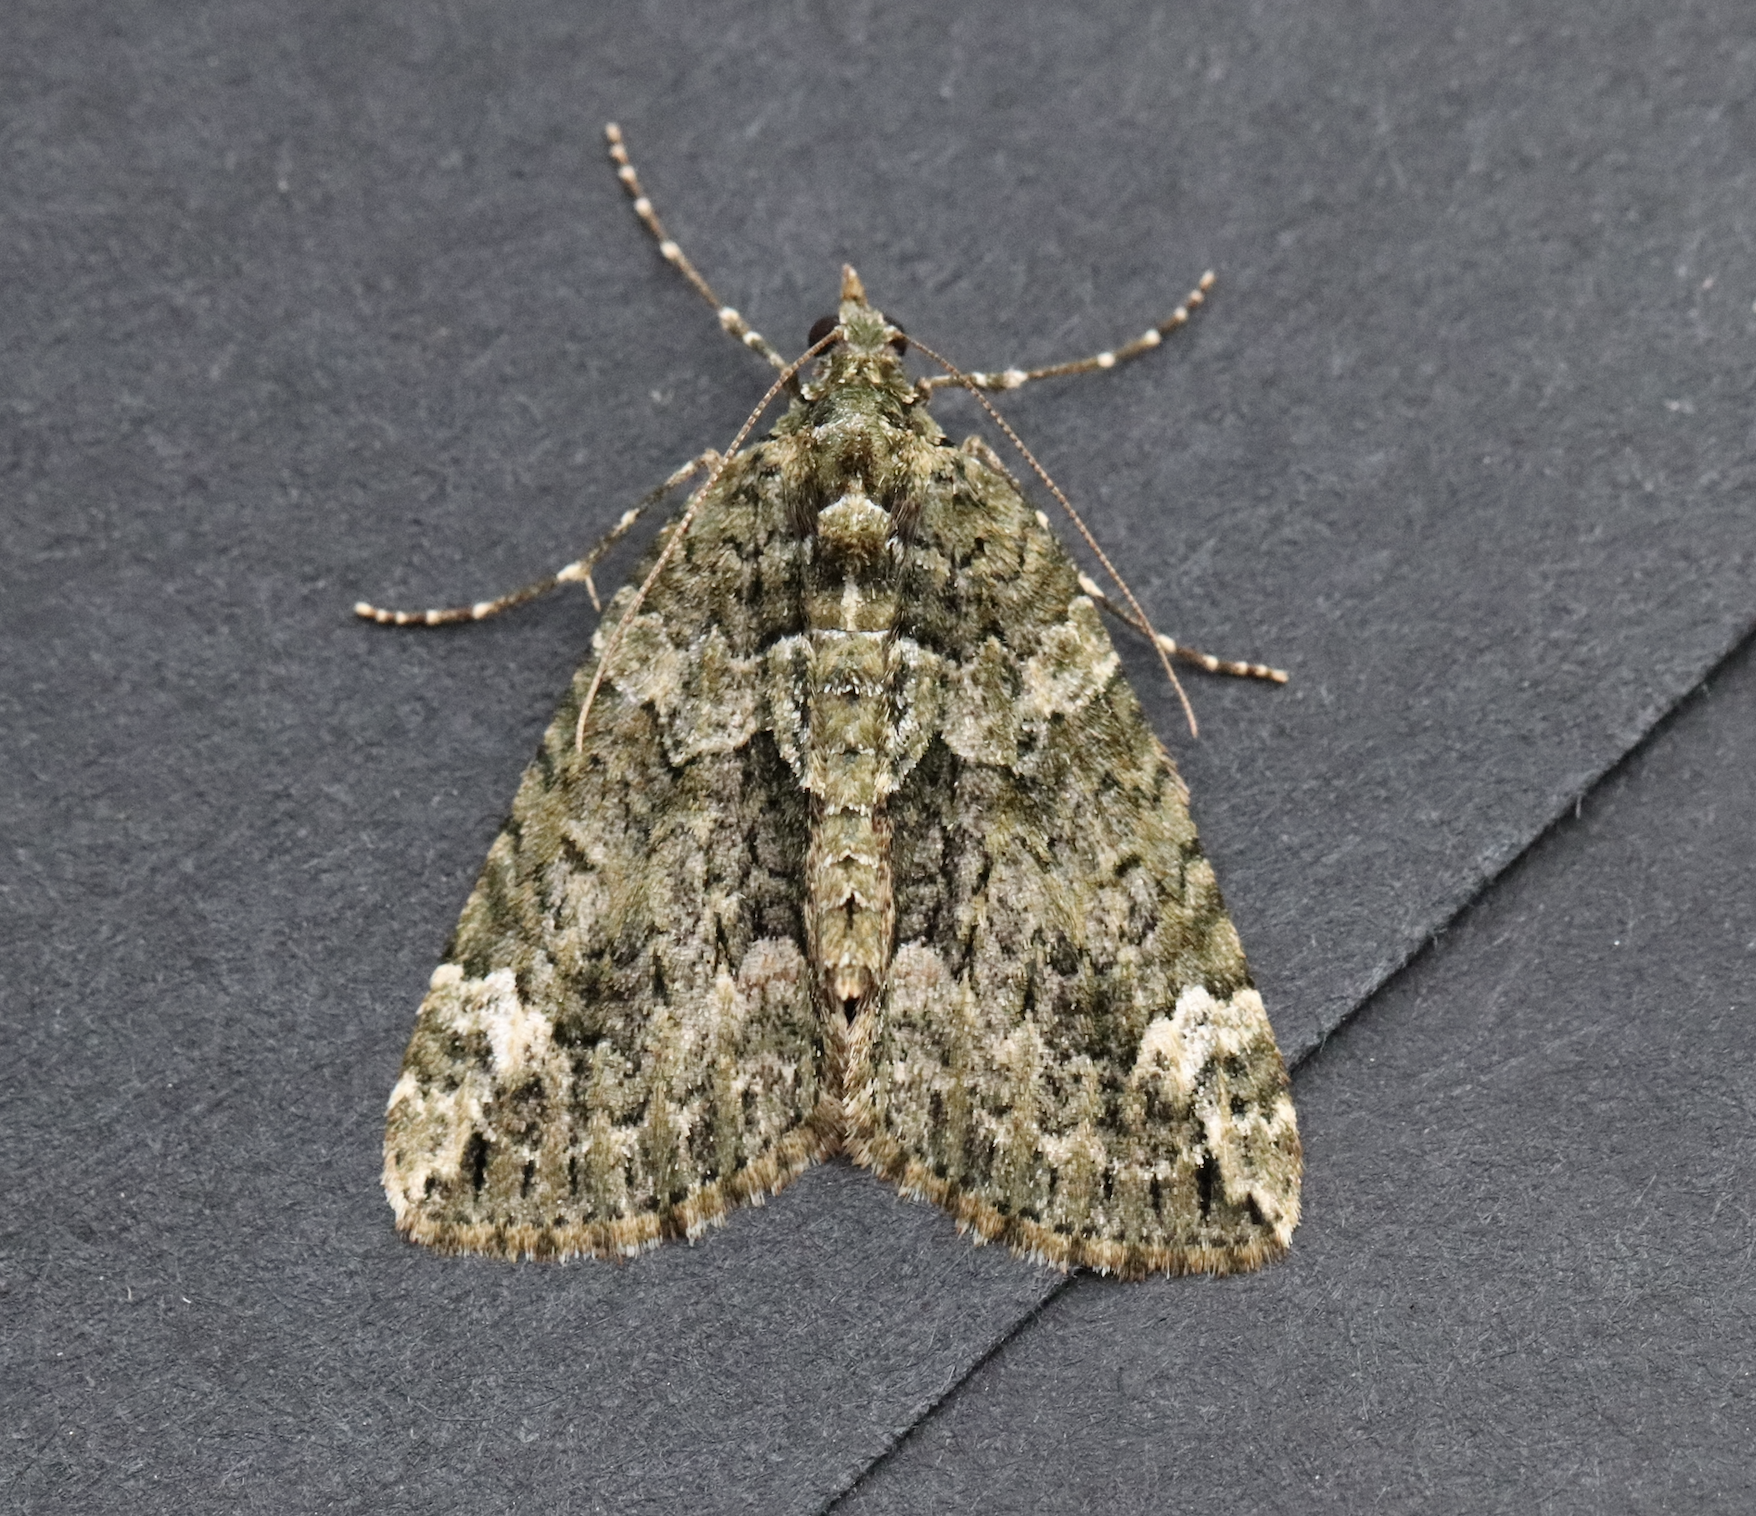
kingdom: Animalia
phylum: Arthropoda
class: Insecta
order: Lepidoptera
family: Geometridae
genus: Chloroclysta
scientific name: Chloroclysta siterata
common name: Red-green carpet
